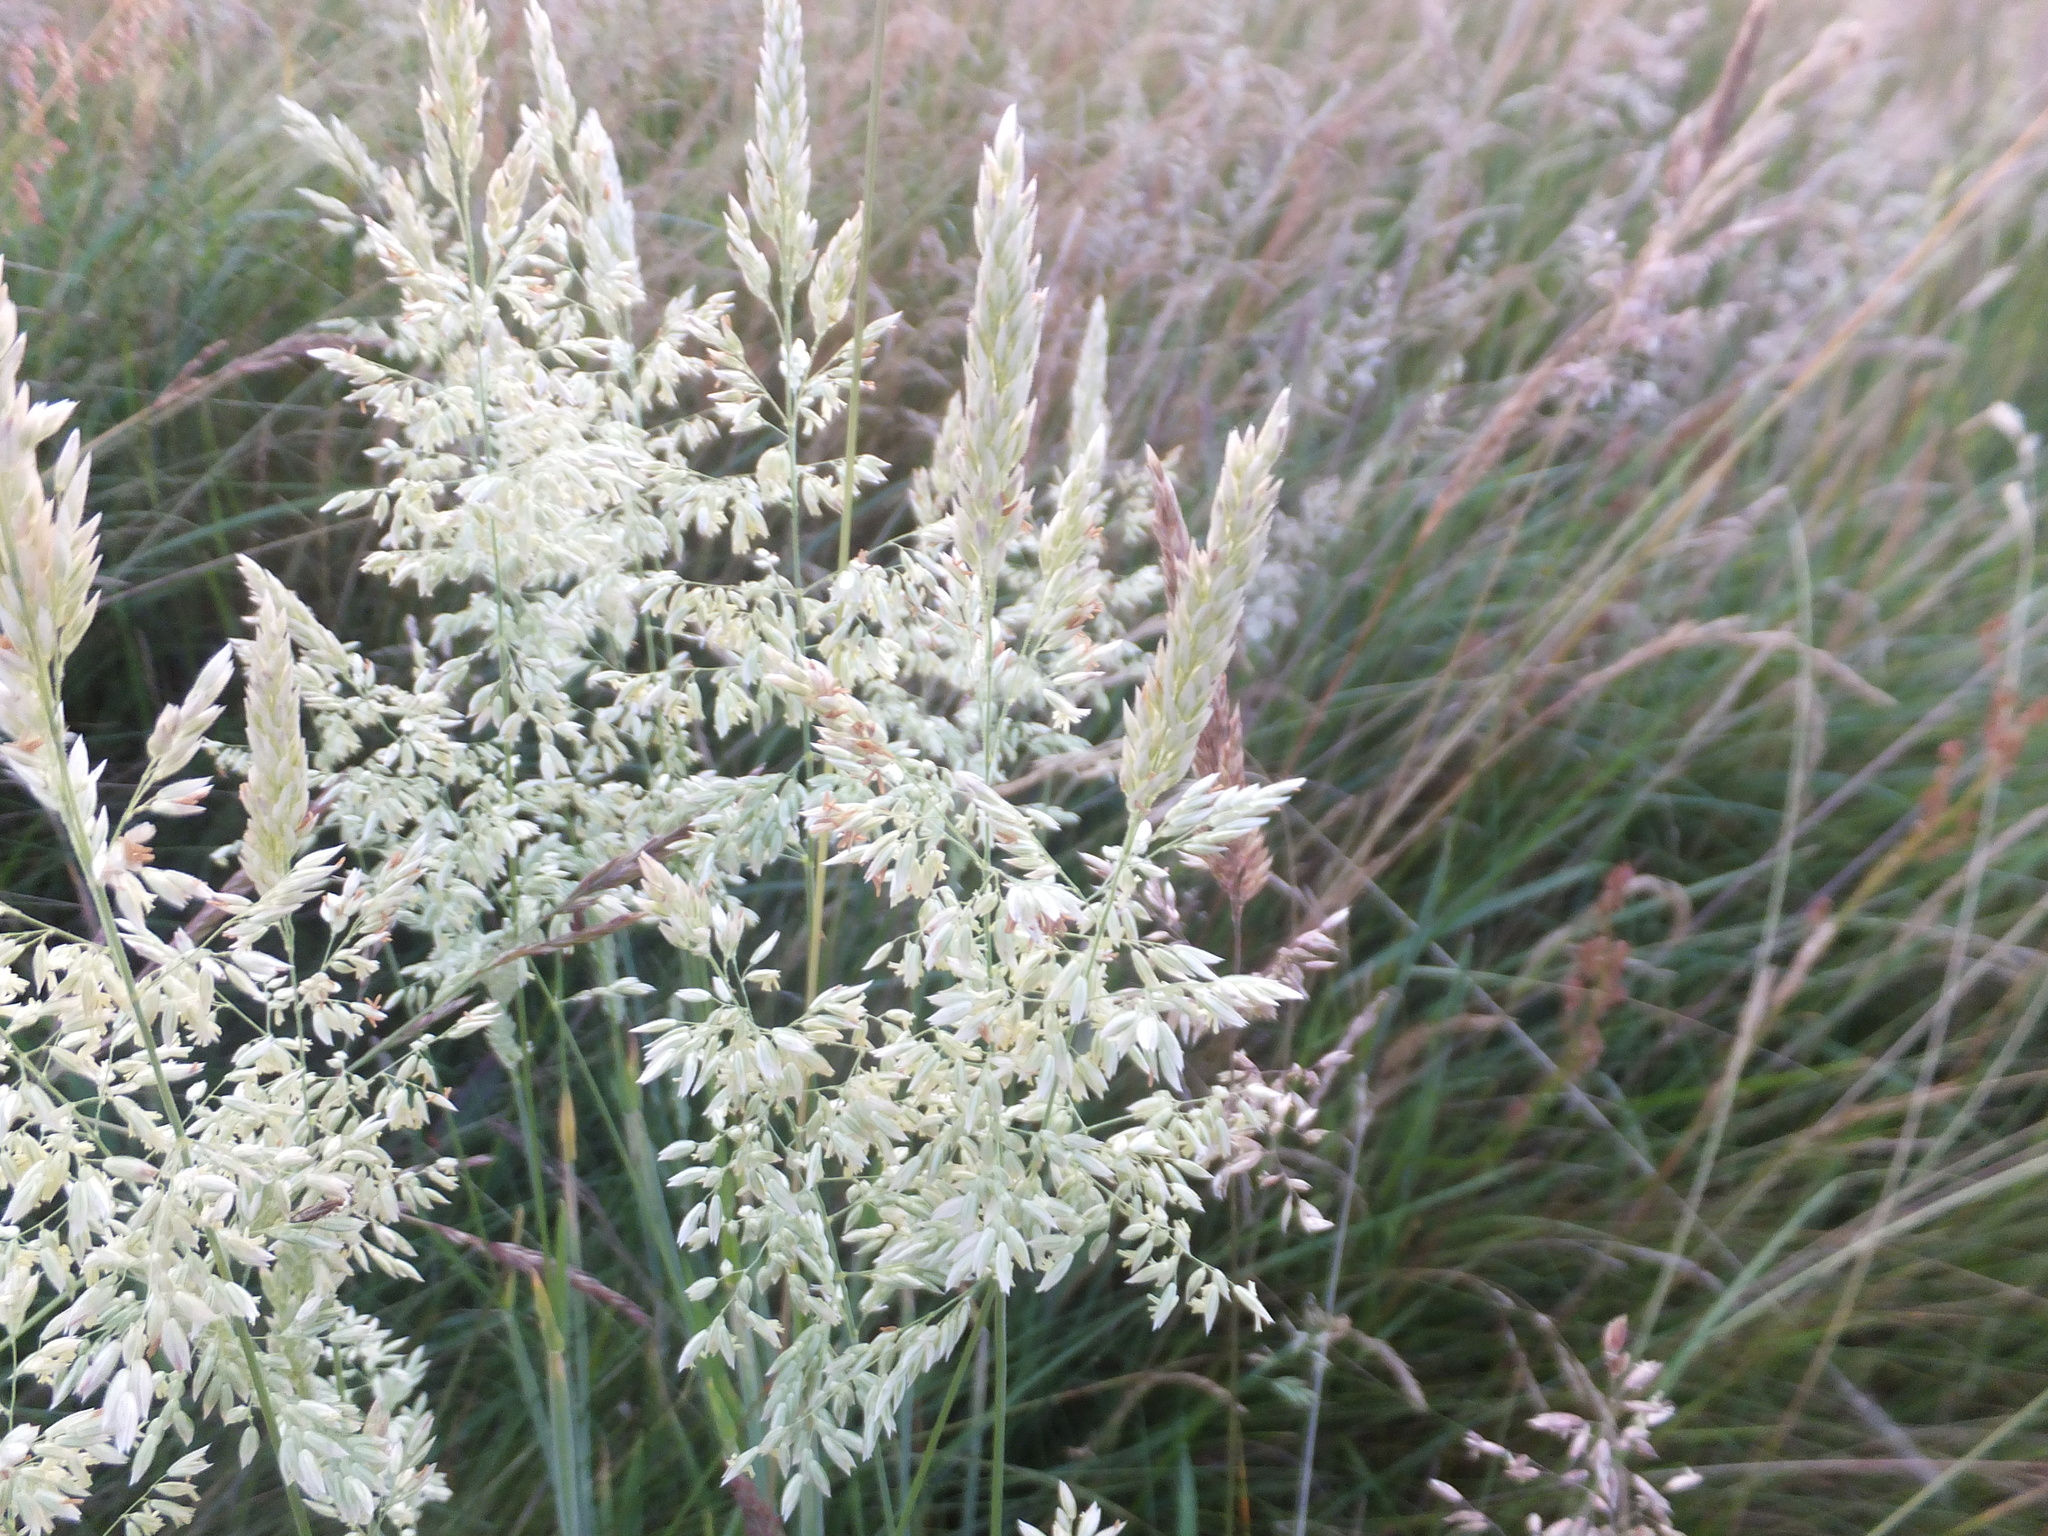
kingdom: Plantae
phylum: Tracheophyta
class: Liliopsida
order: Poales
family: Poaceae
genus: Holcus
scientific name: Holcus lanatus
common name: Yorkshire-fog
